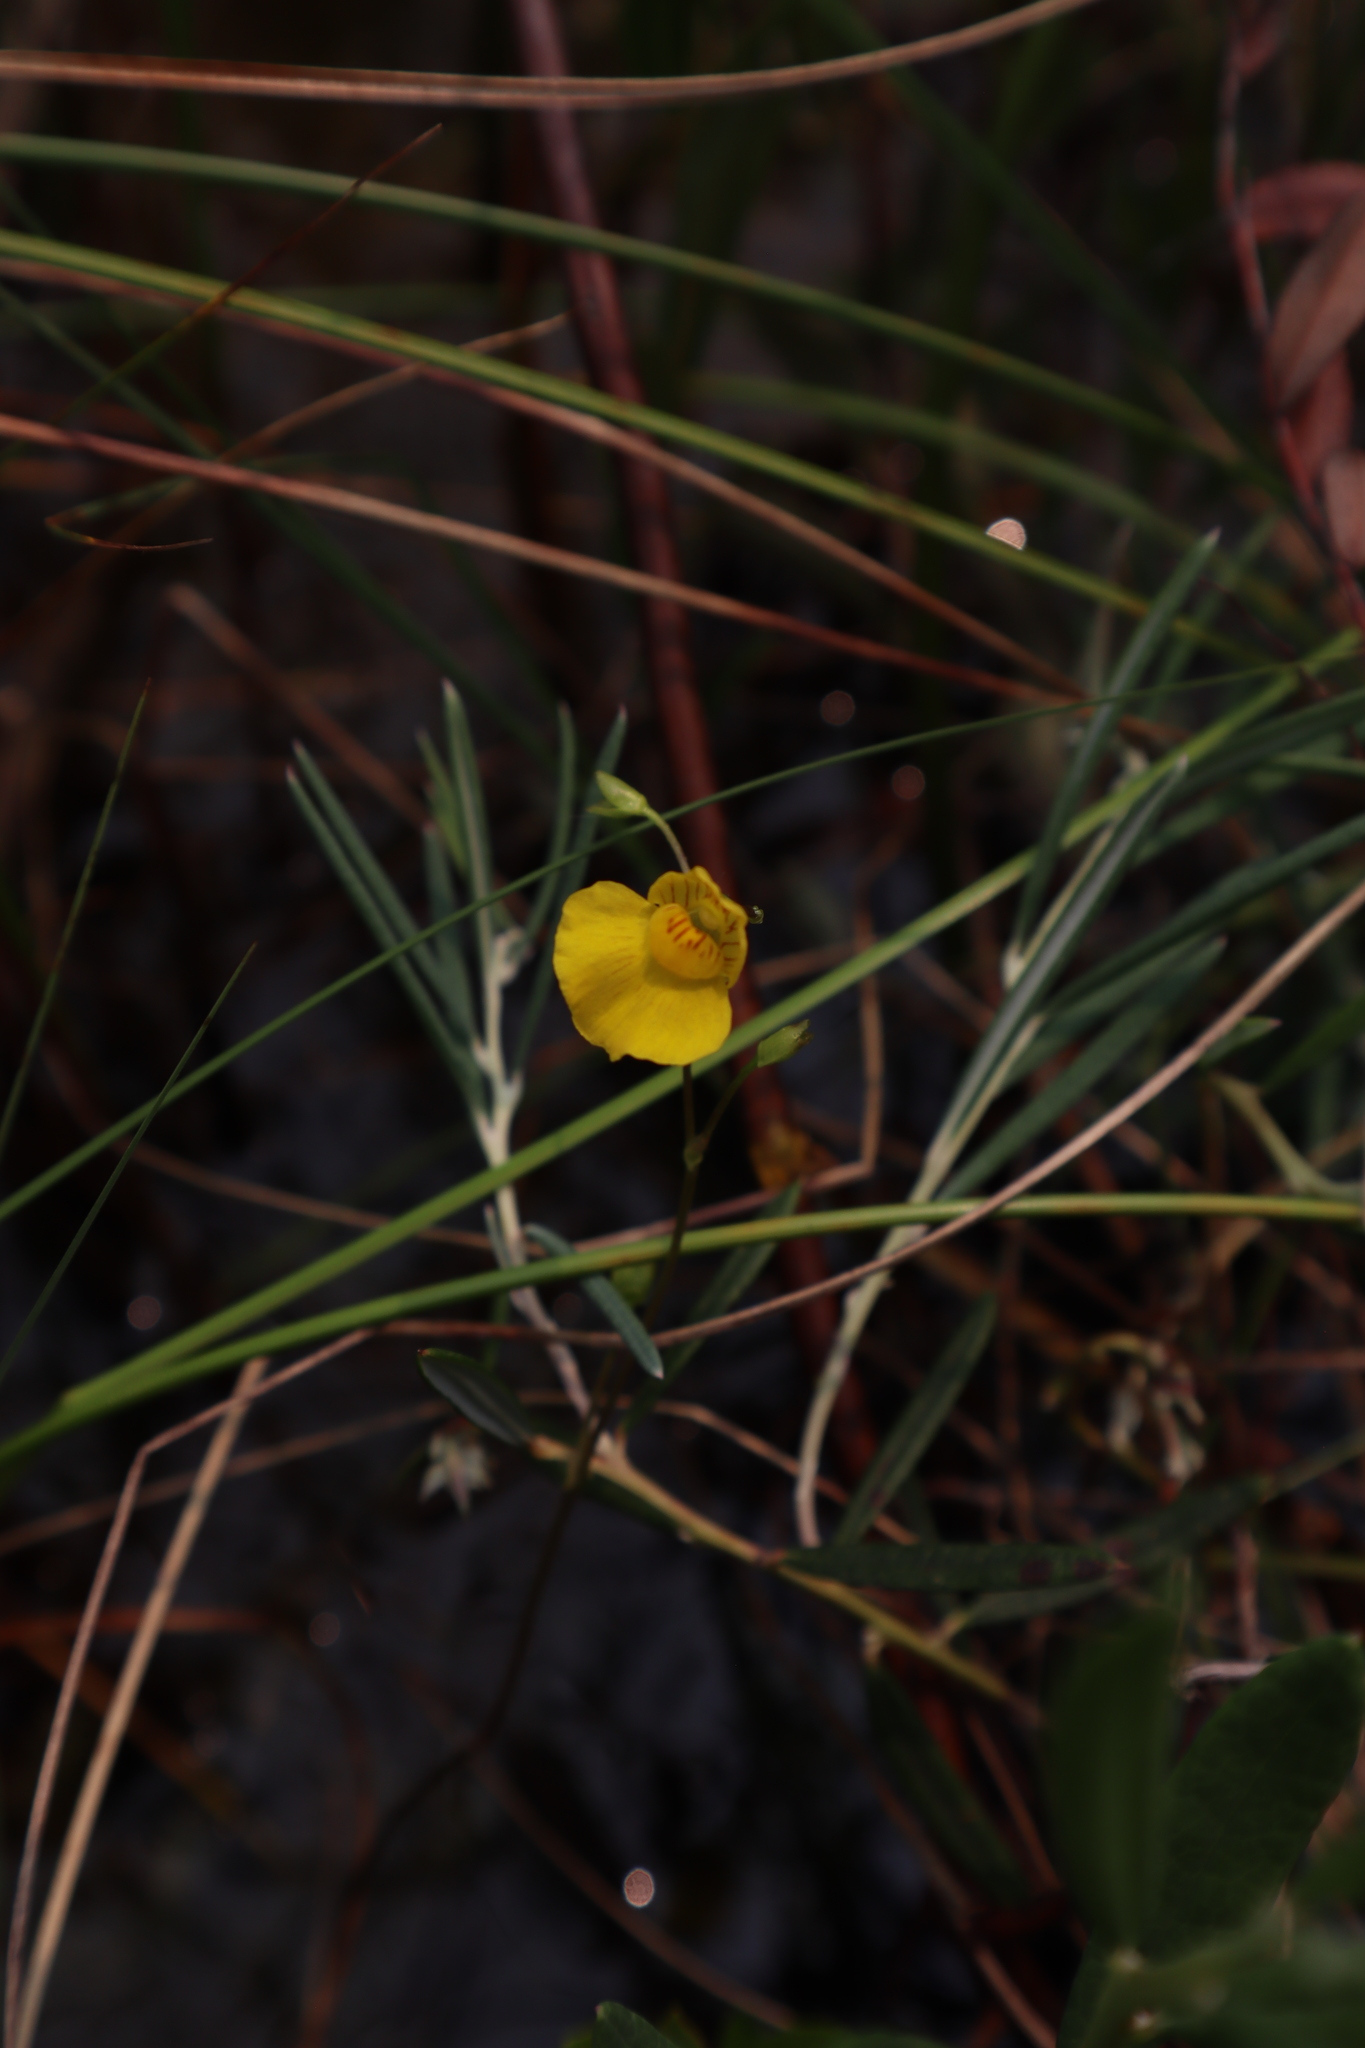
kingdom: Plantae
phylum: Tracheophyta
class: Magnoliopsida
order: Lamiales
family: Lentibulariaceae
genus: Utricularia
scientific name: Utricularia intermedia
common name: Intermediate bladderwort
